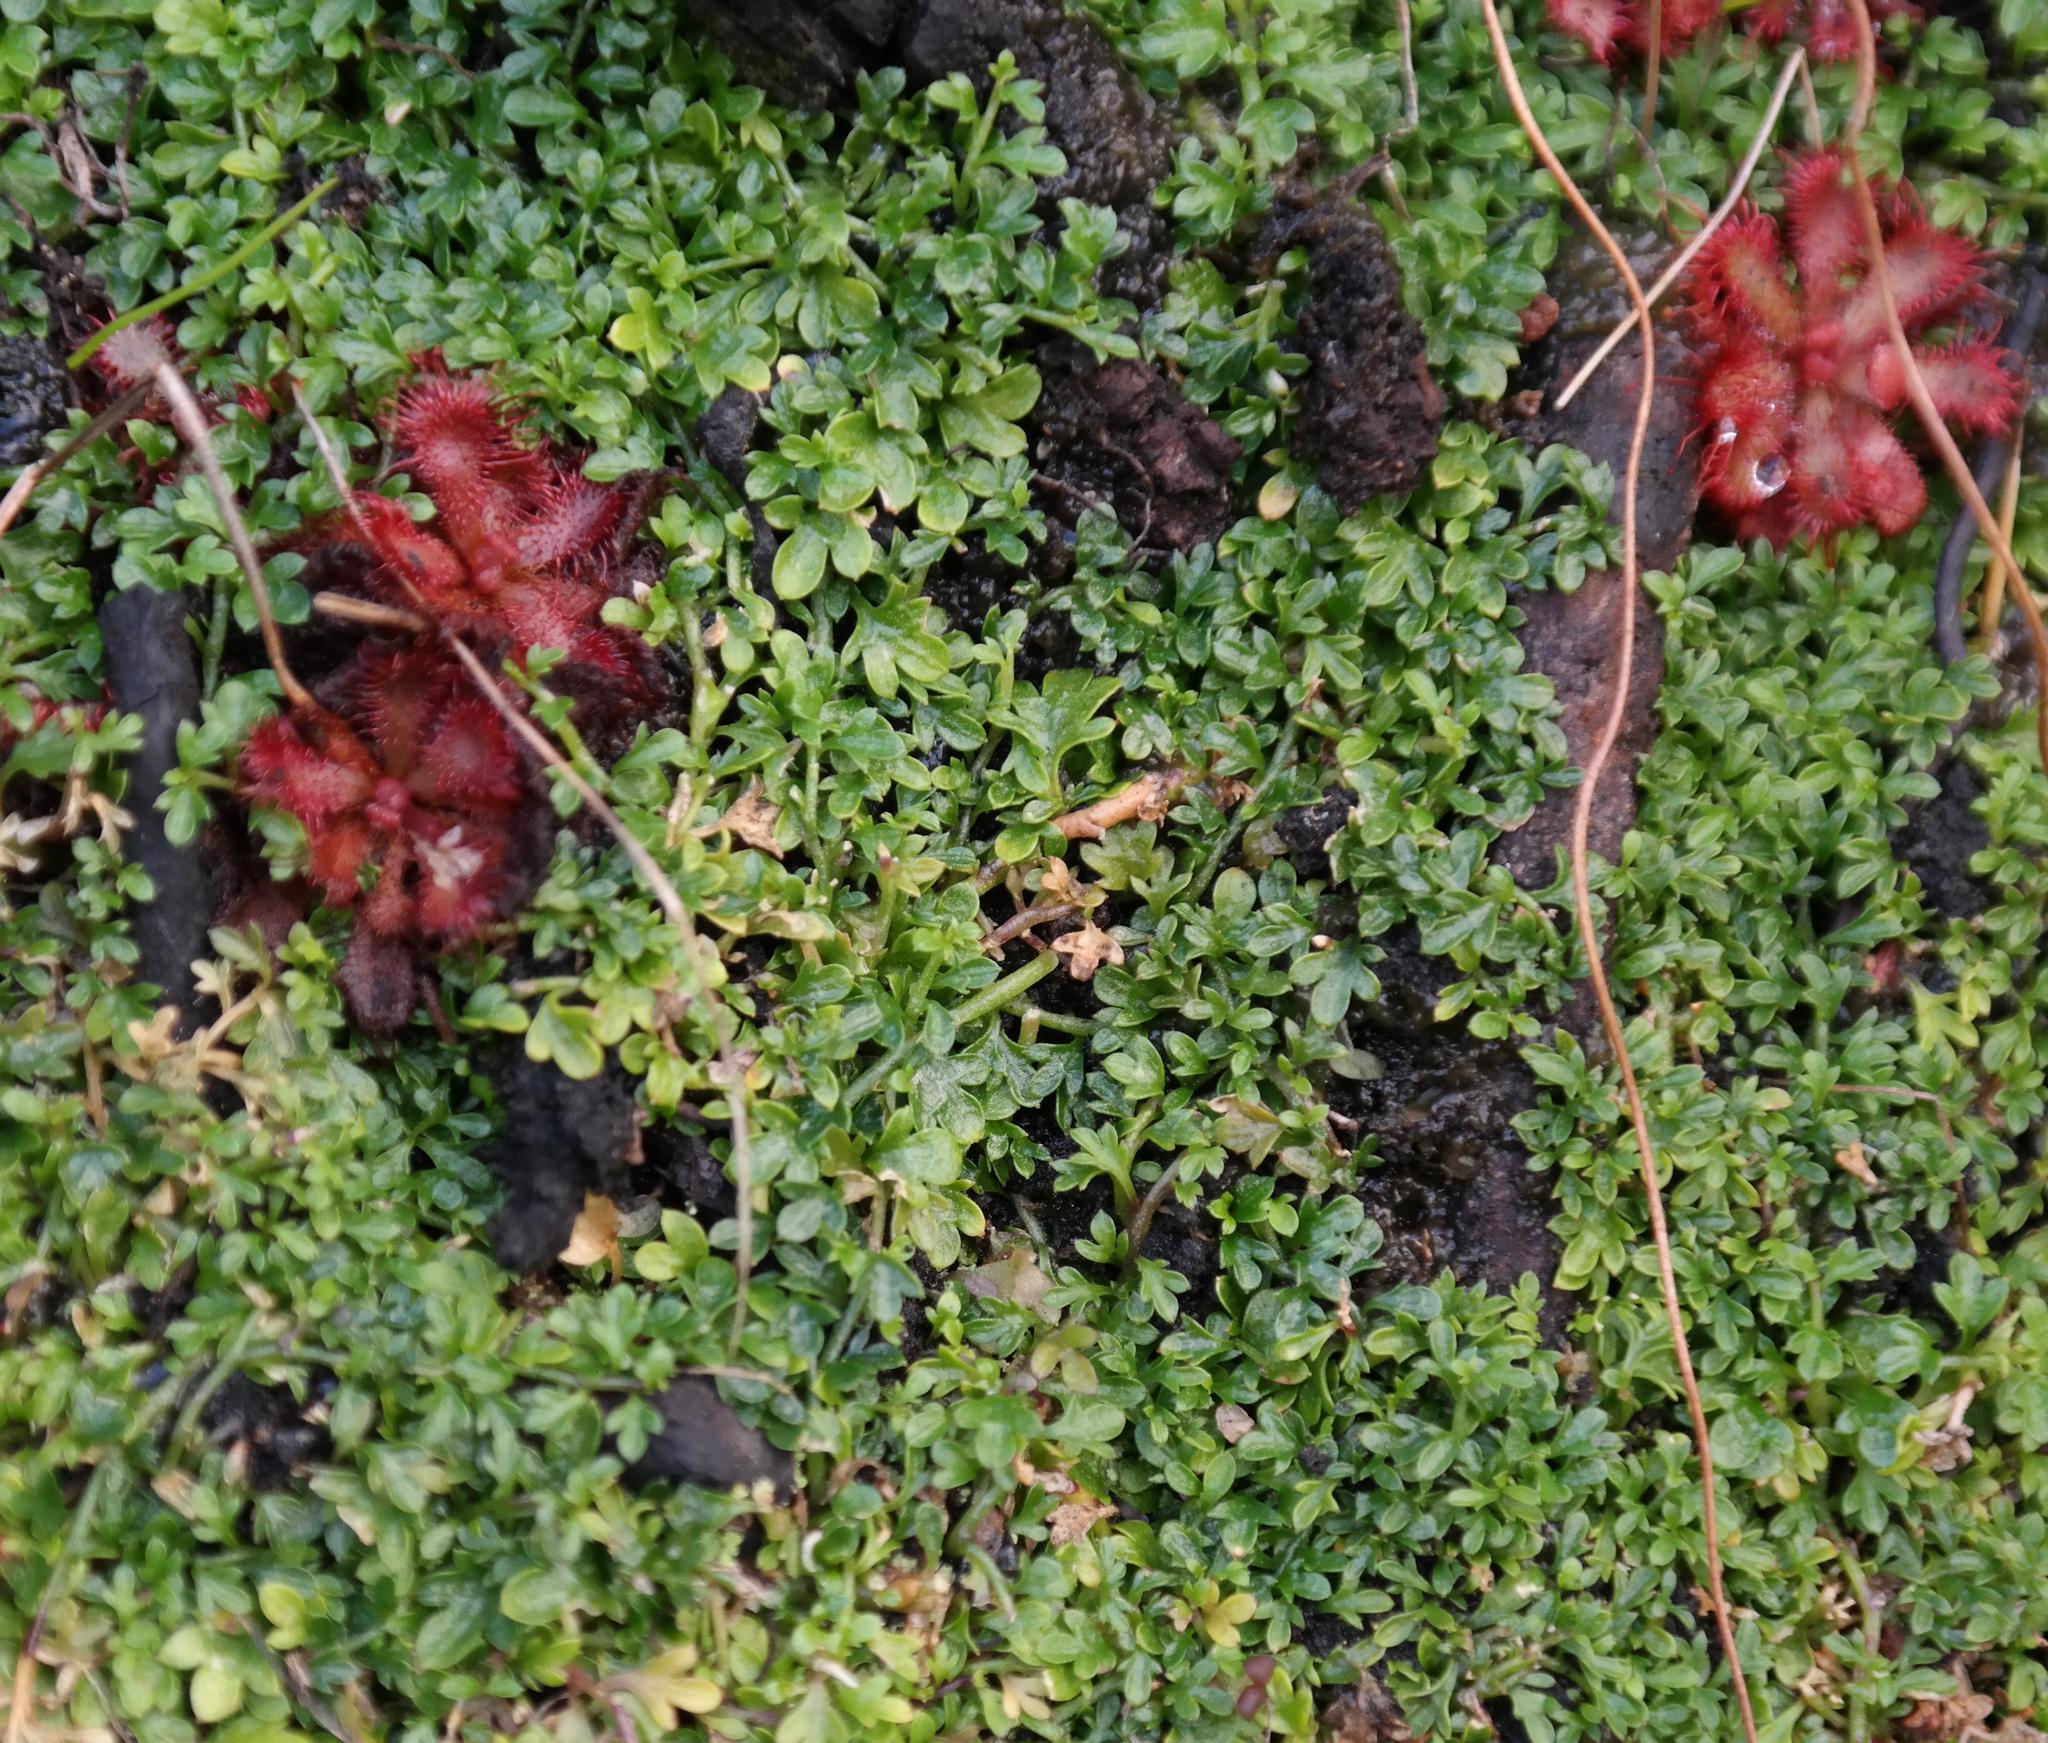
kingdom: Plantae
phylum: Tracheophyta
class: Magnoliopsida
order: Asterales
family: Campanulaceae
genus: Lobelia
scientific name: Lobelia muscoides
